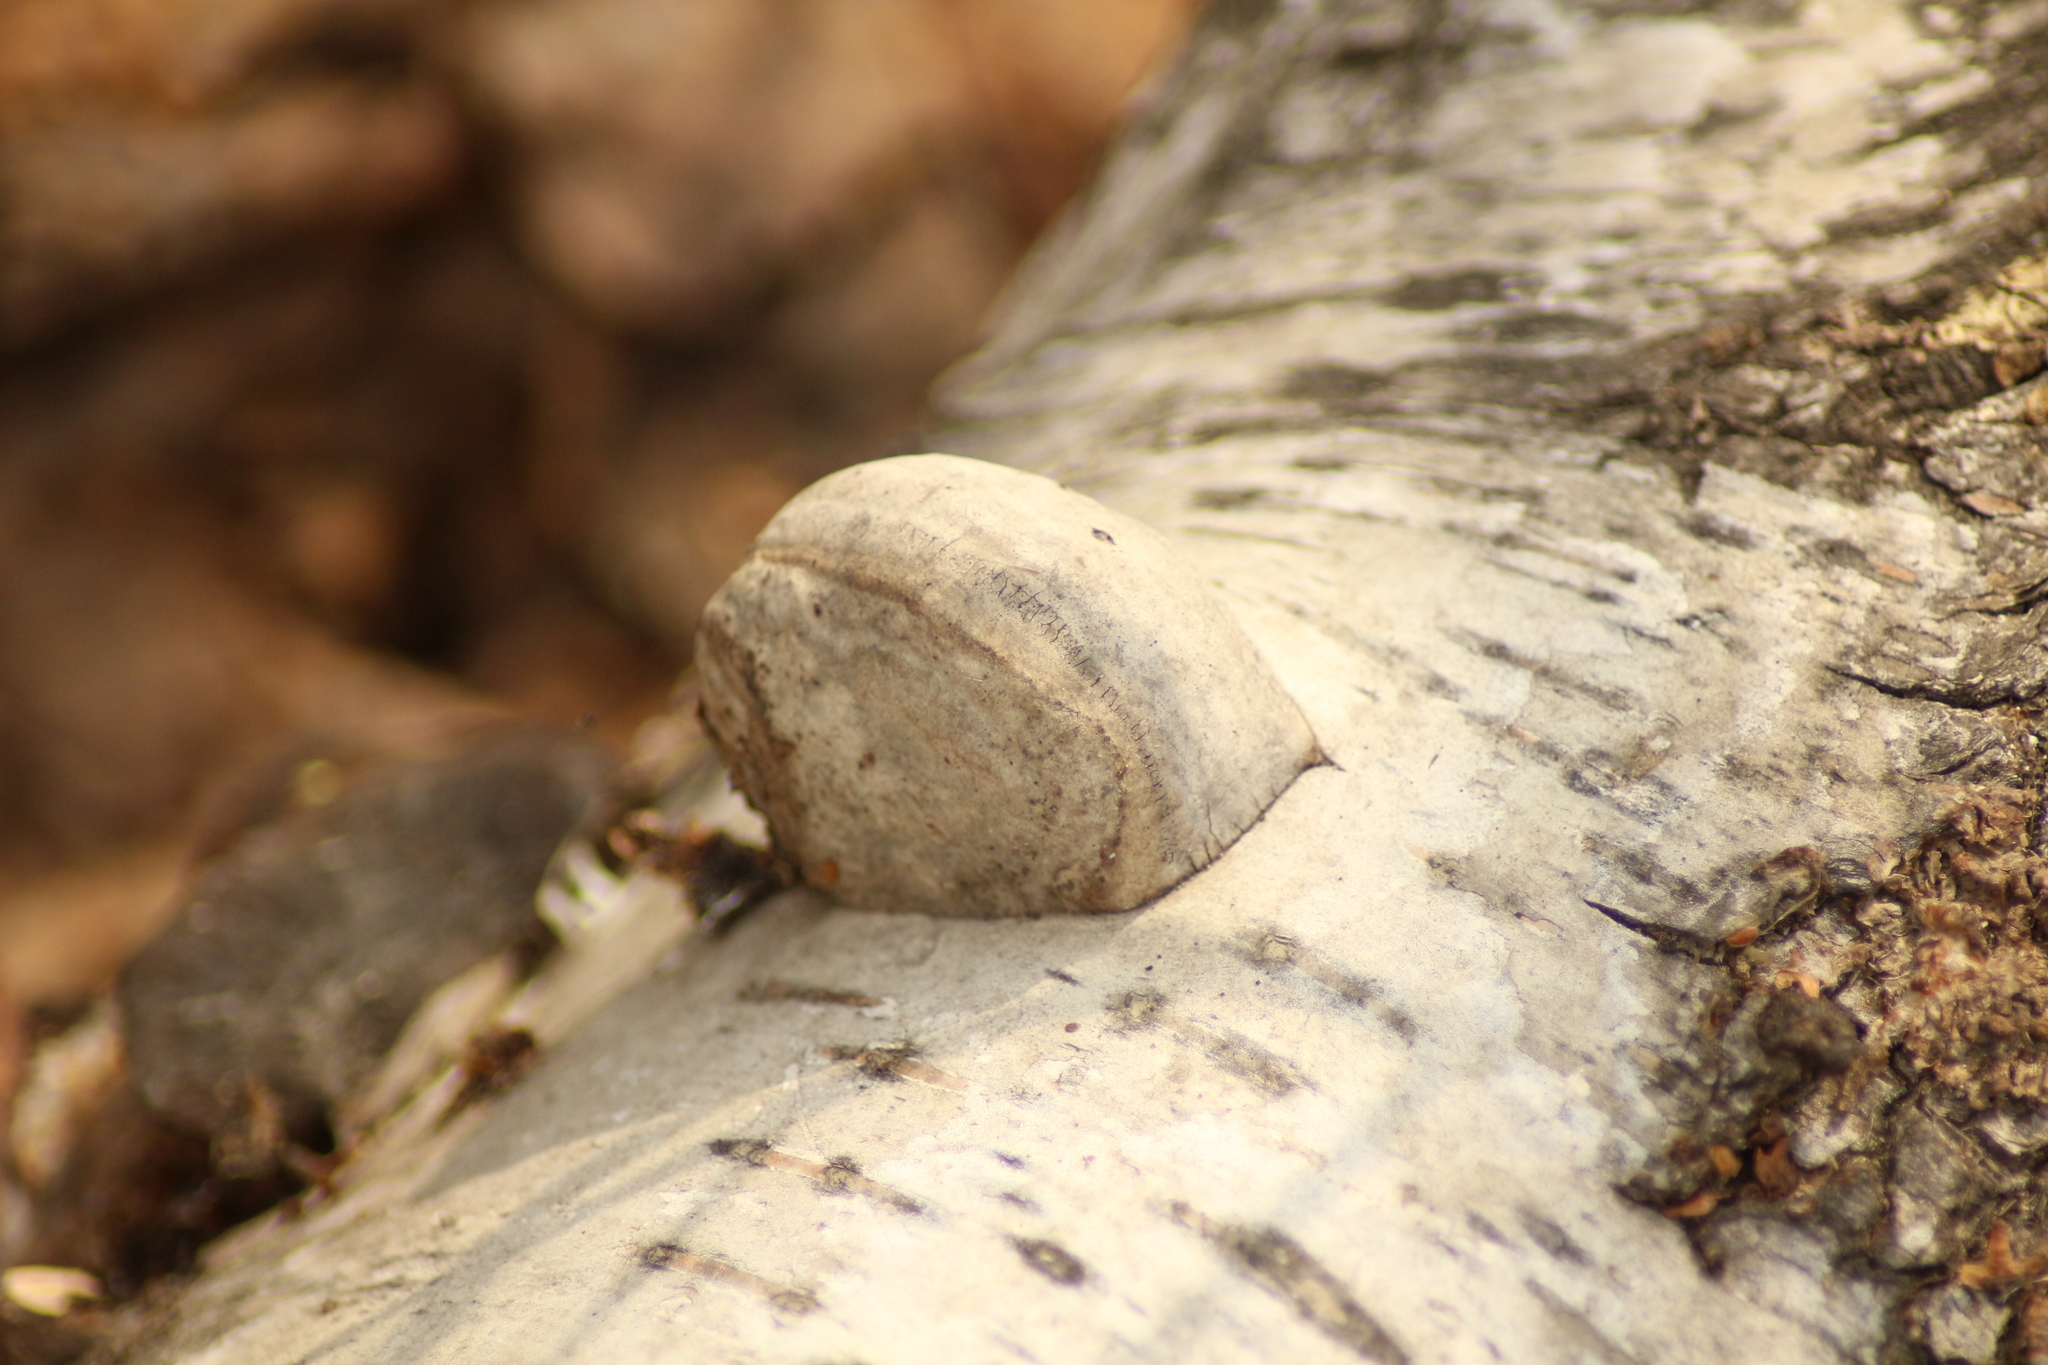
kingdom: Fungi
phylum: Basidiomycota
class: Agaricomycetes
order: Polyporales
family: Fomitopsidaceae
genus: Fomitopsis
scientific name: Fomitopsis betulina
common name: Birch polypore
